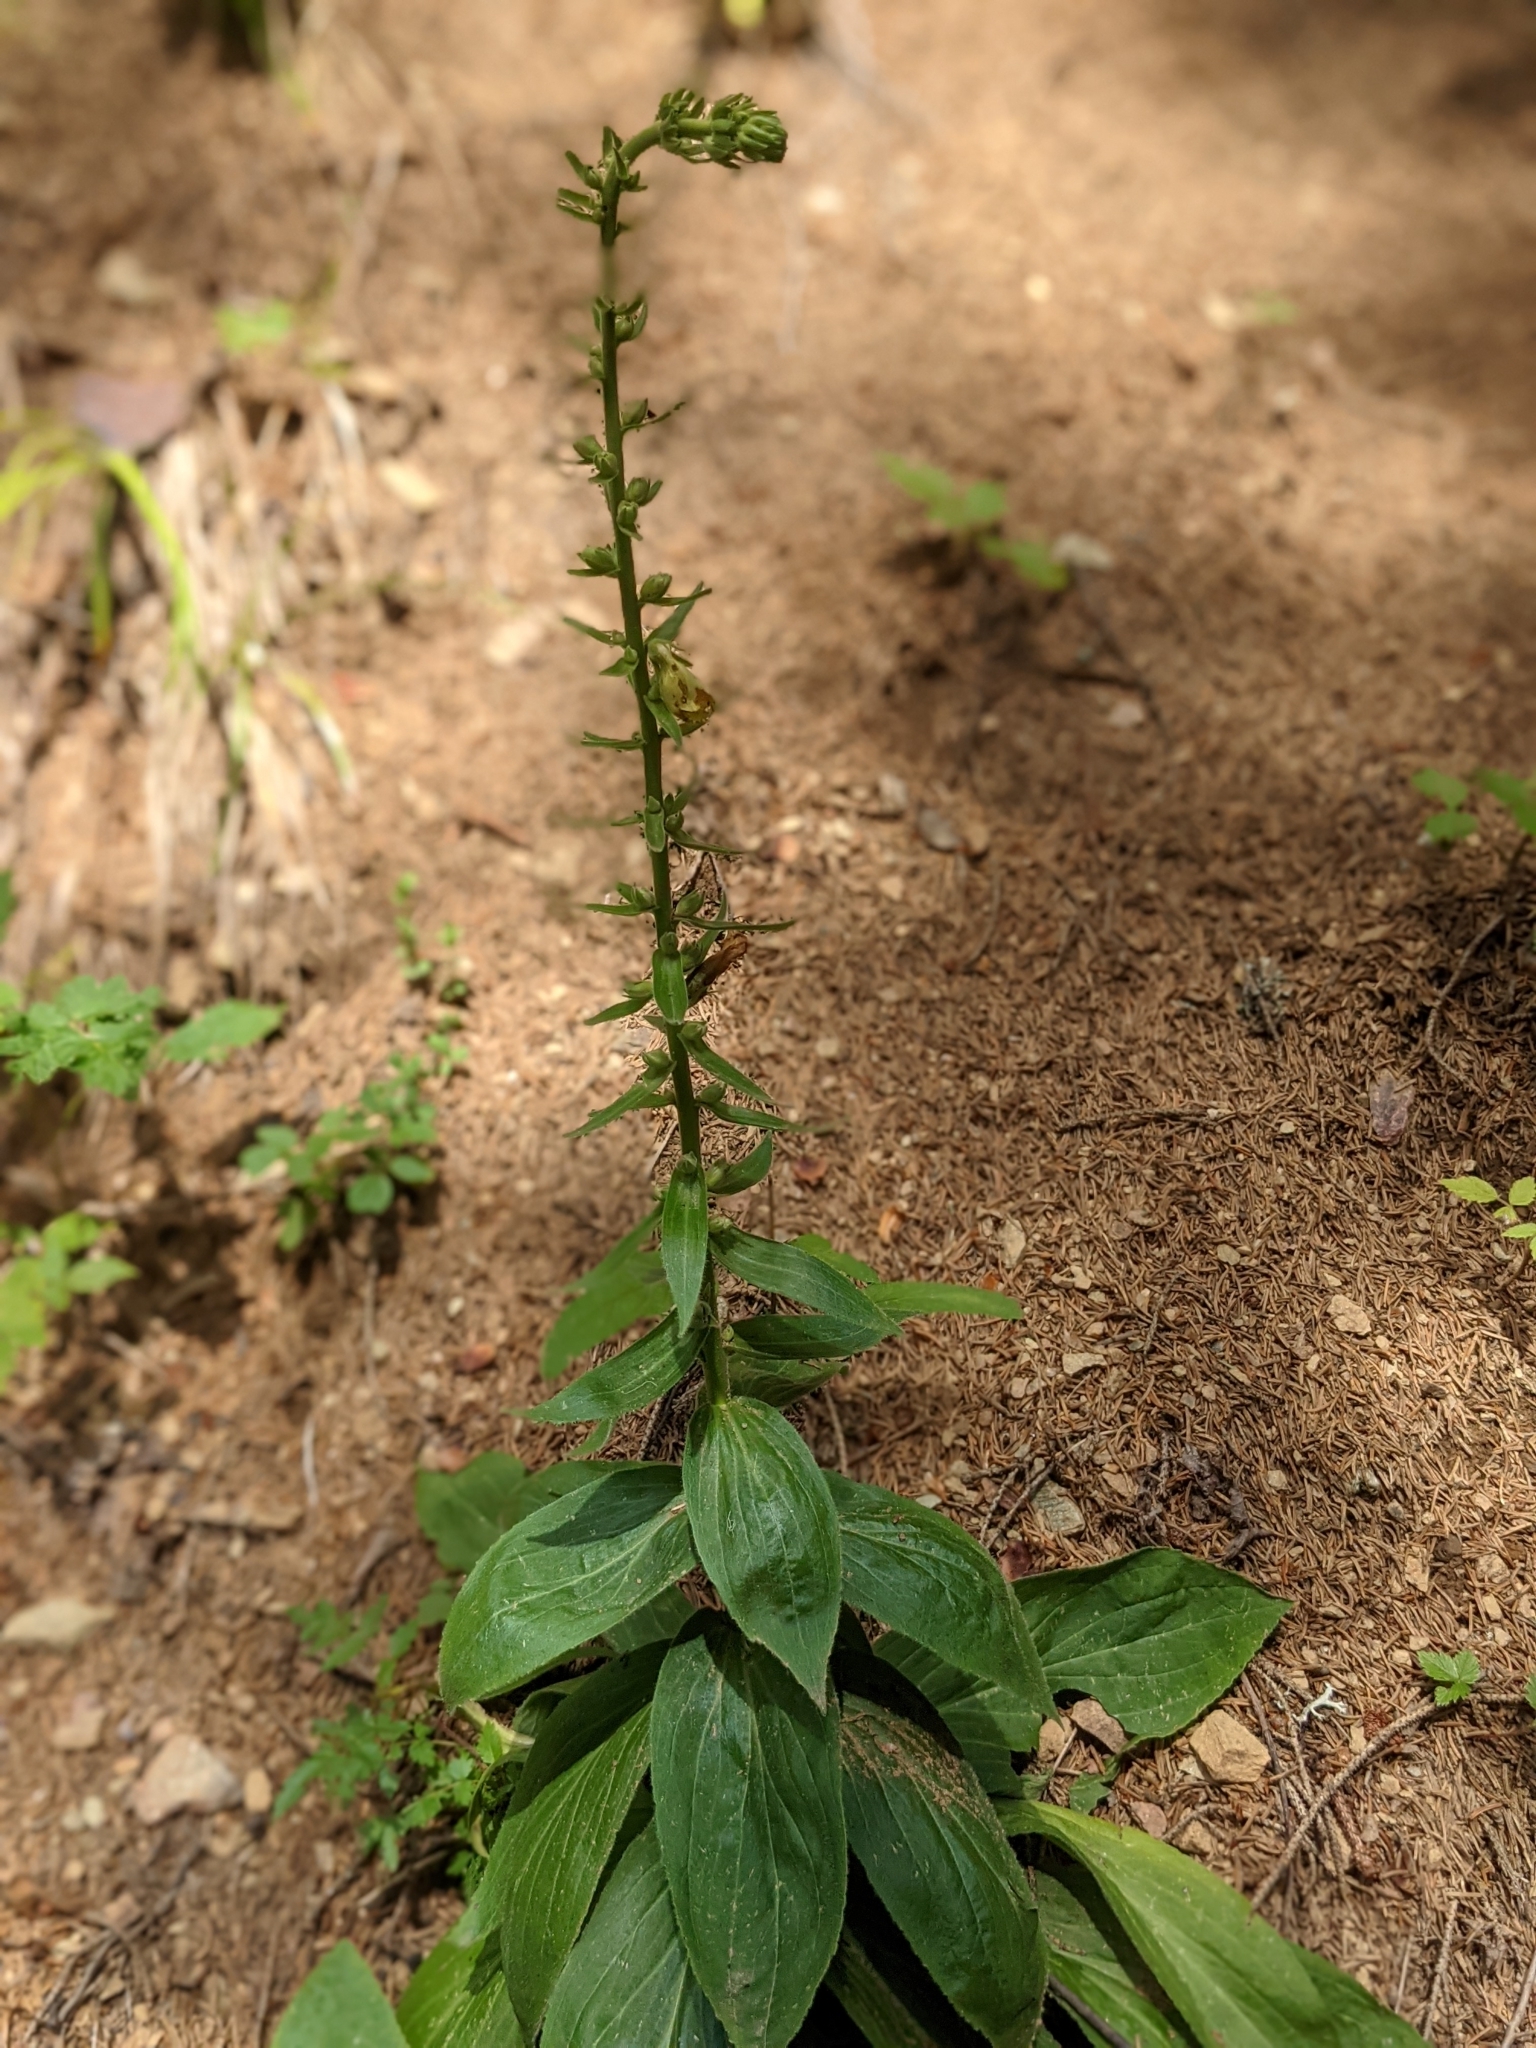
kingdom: Plantae
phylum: Tracheophyta
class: Magnoliopsida
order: Lamiales
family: Plantaginaceae
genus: Digitalis
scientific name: Digitalis lutea
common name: Straw foxglove
